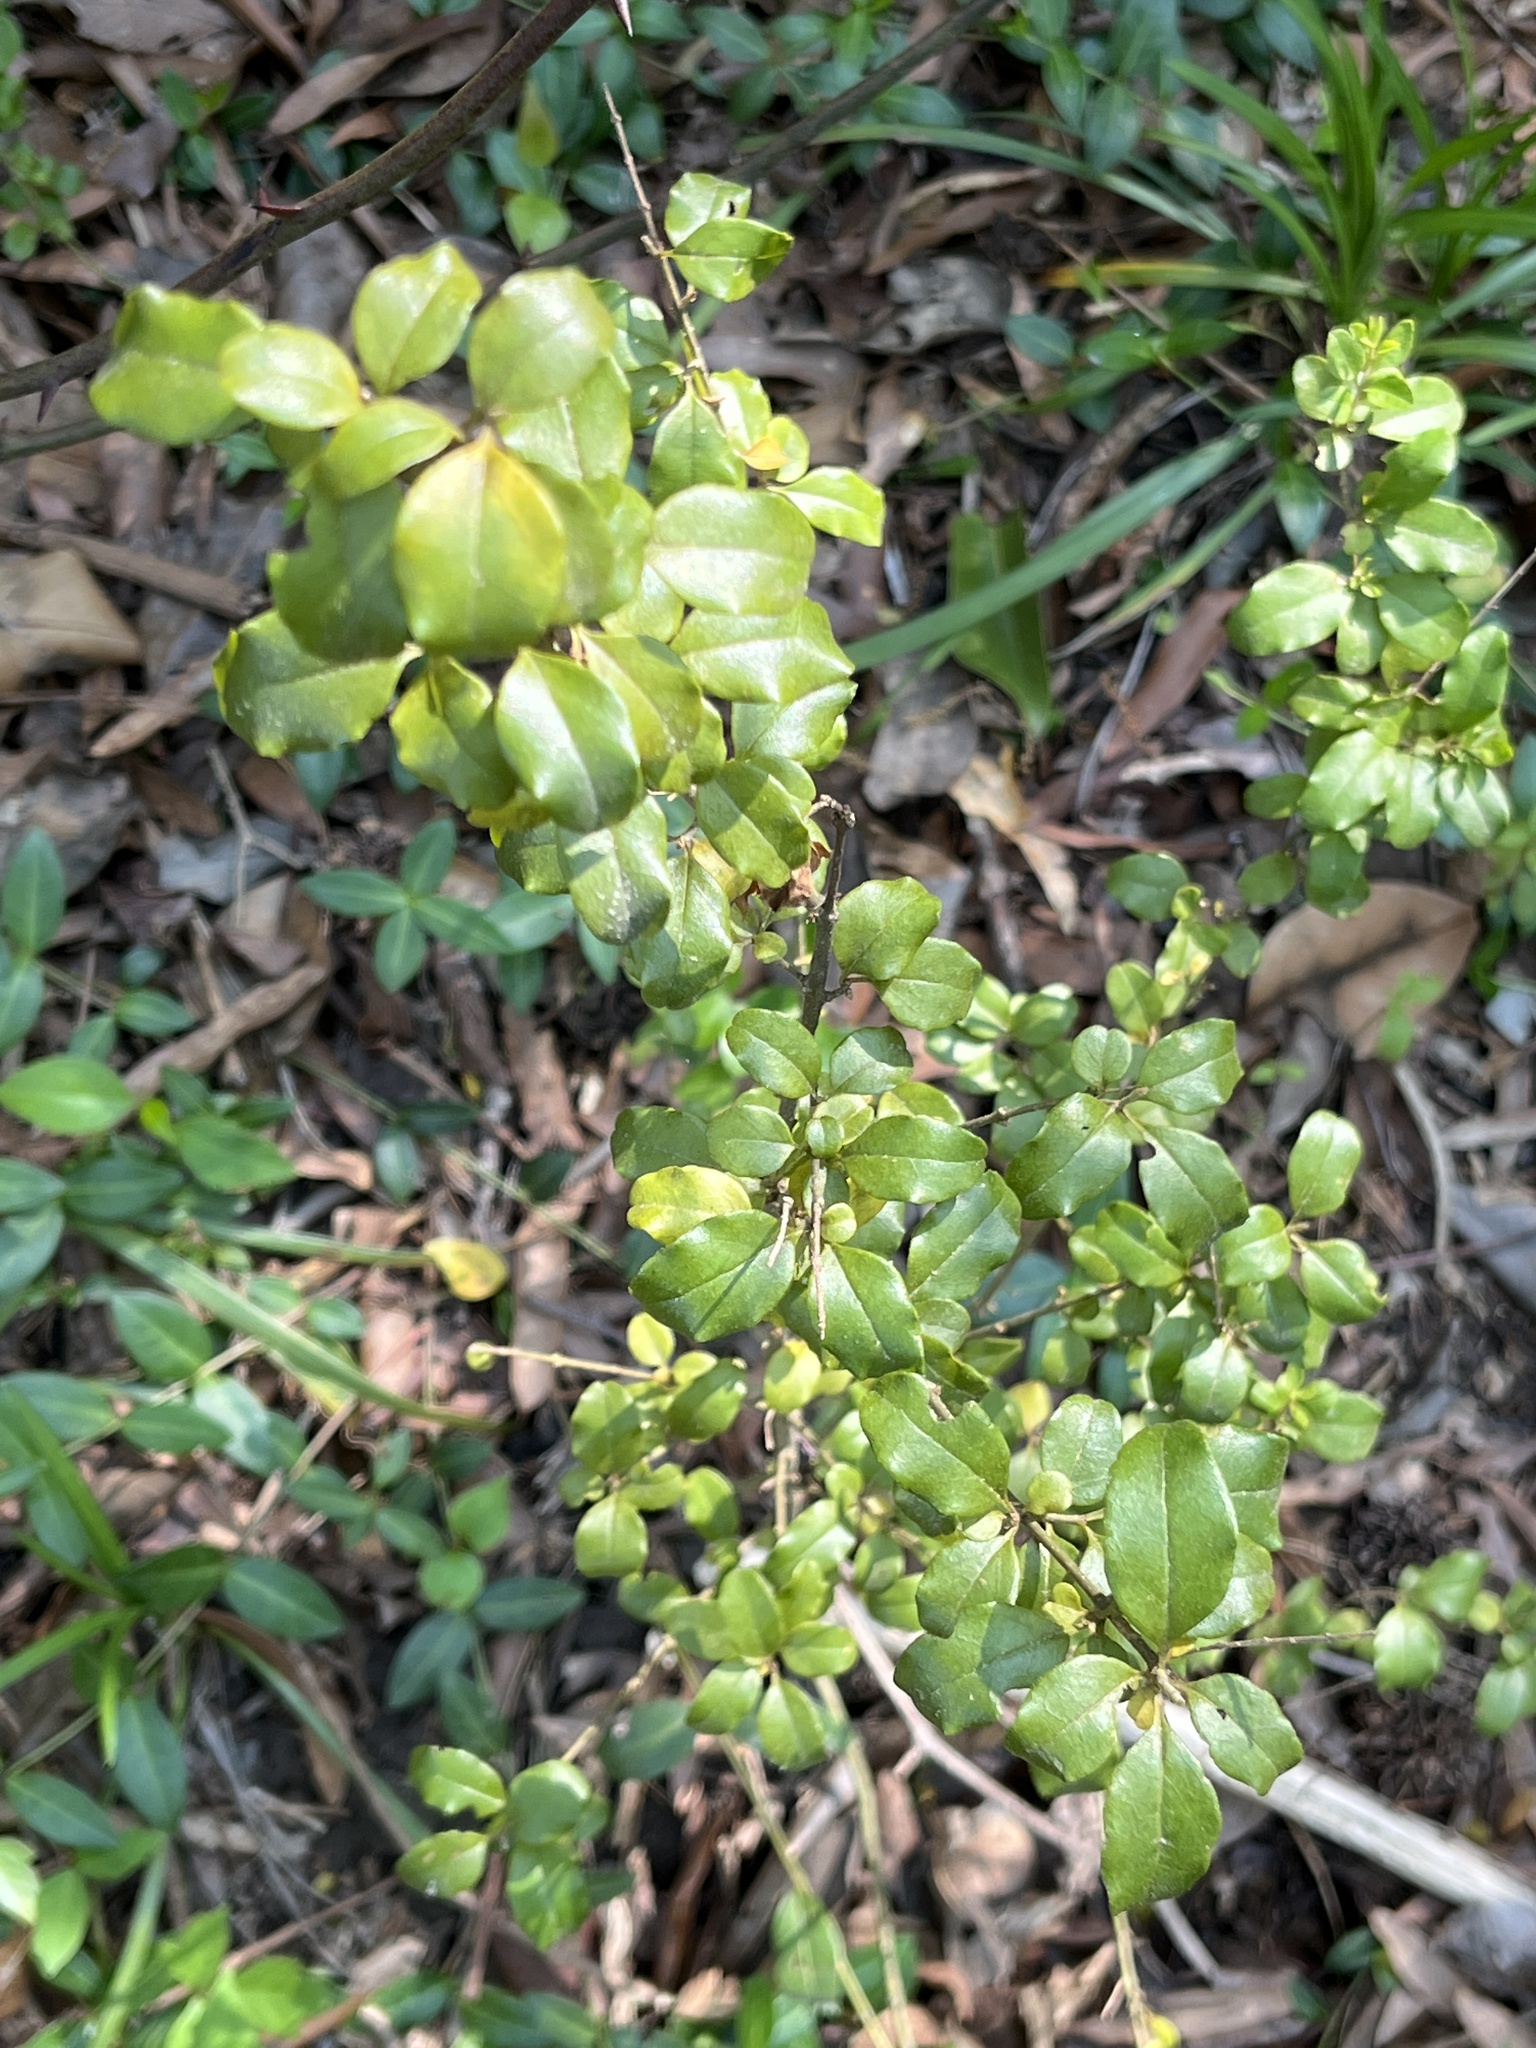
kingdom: Plantae
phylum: Tracheophyta
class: Magnoliopsida
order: Lamiales
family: Oleaceae
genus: Ligustrum
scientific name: Ligustrum sinense
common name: Chinese privet
